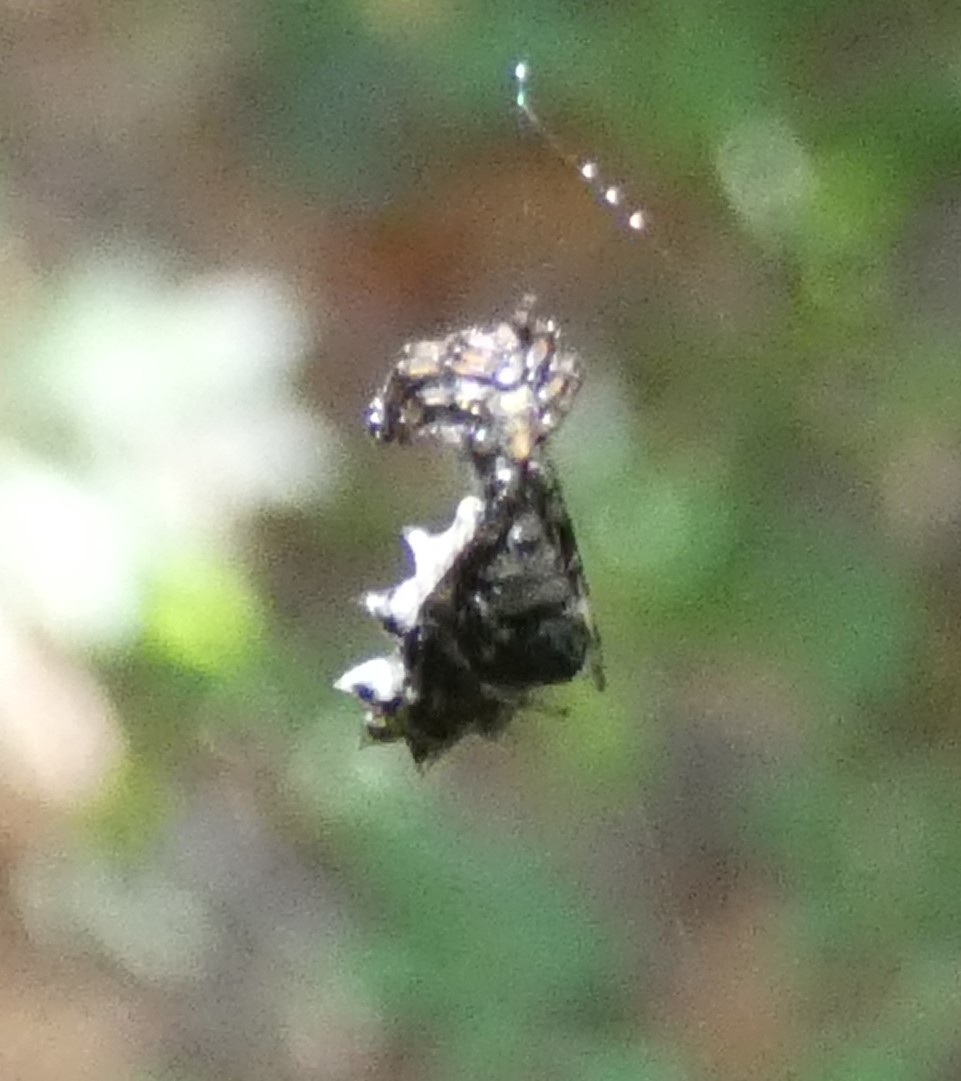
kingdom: Animalia
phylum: Arthropoda
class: Arachnida
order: Araneae
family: Araneidae
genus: Micrathena
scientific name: Micrathena gracilis
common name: Orb weavers
